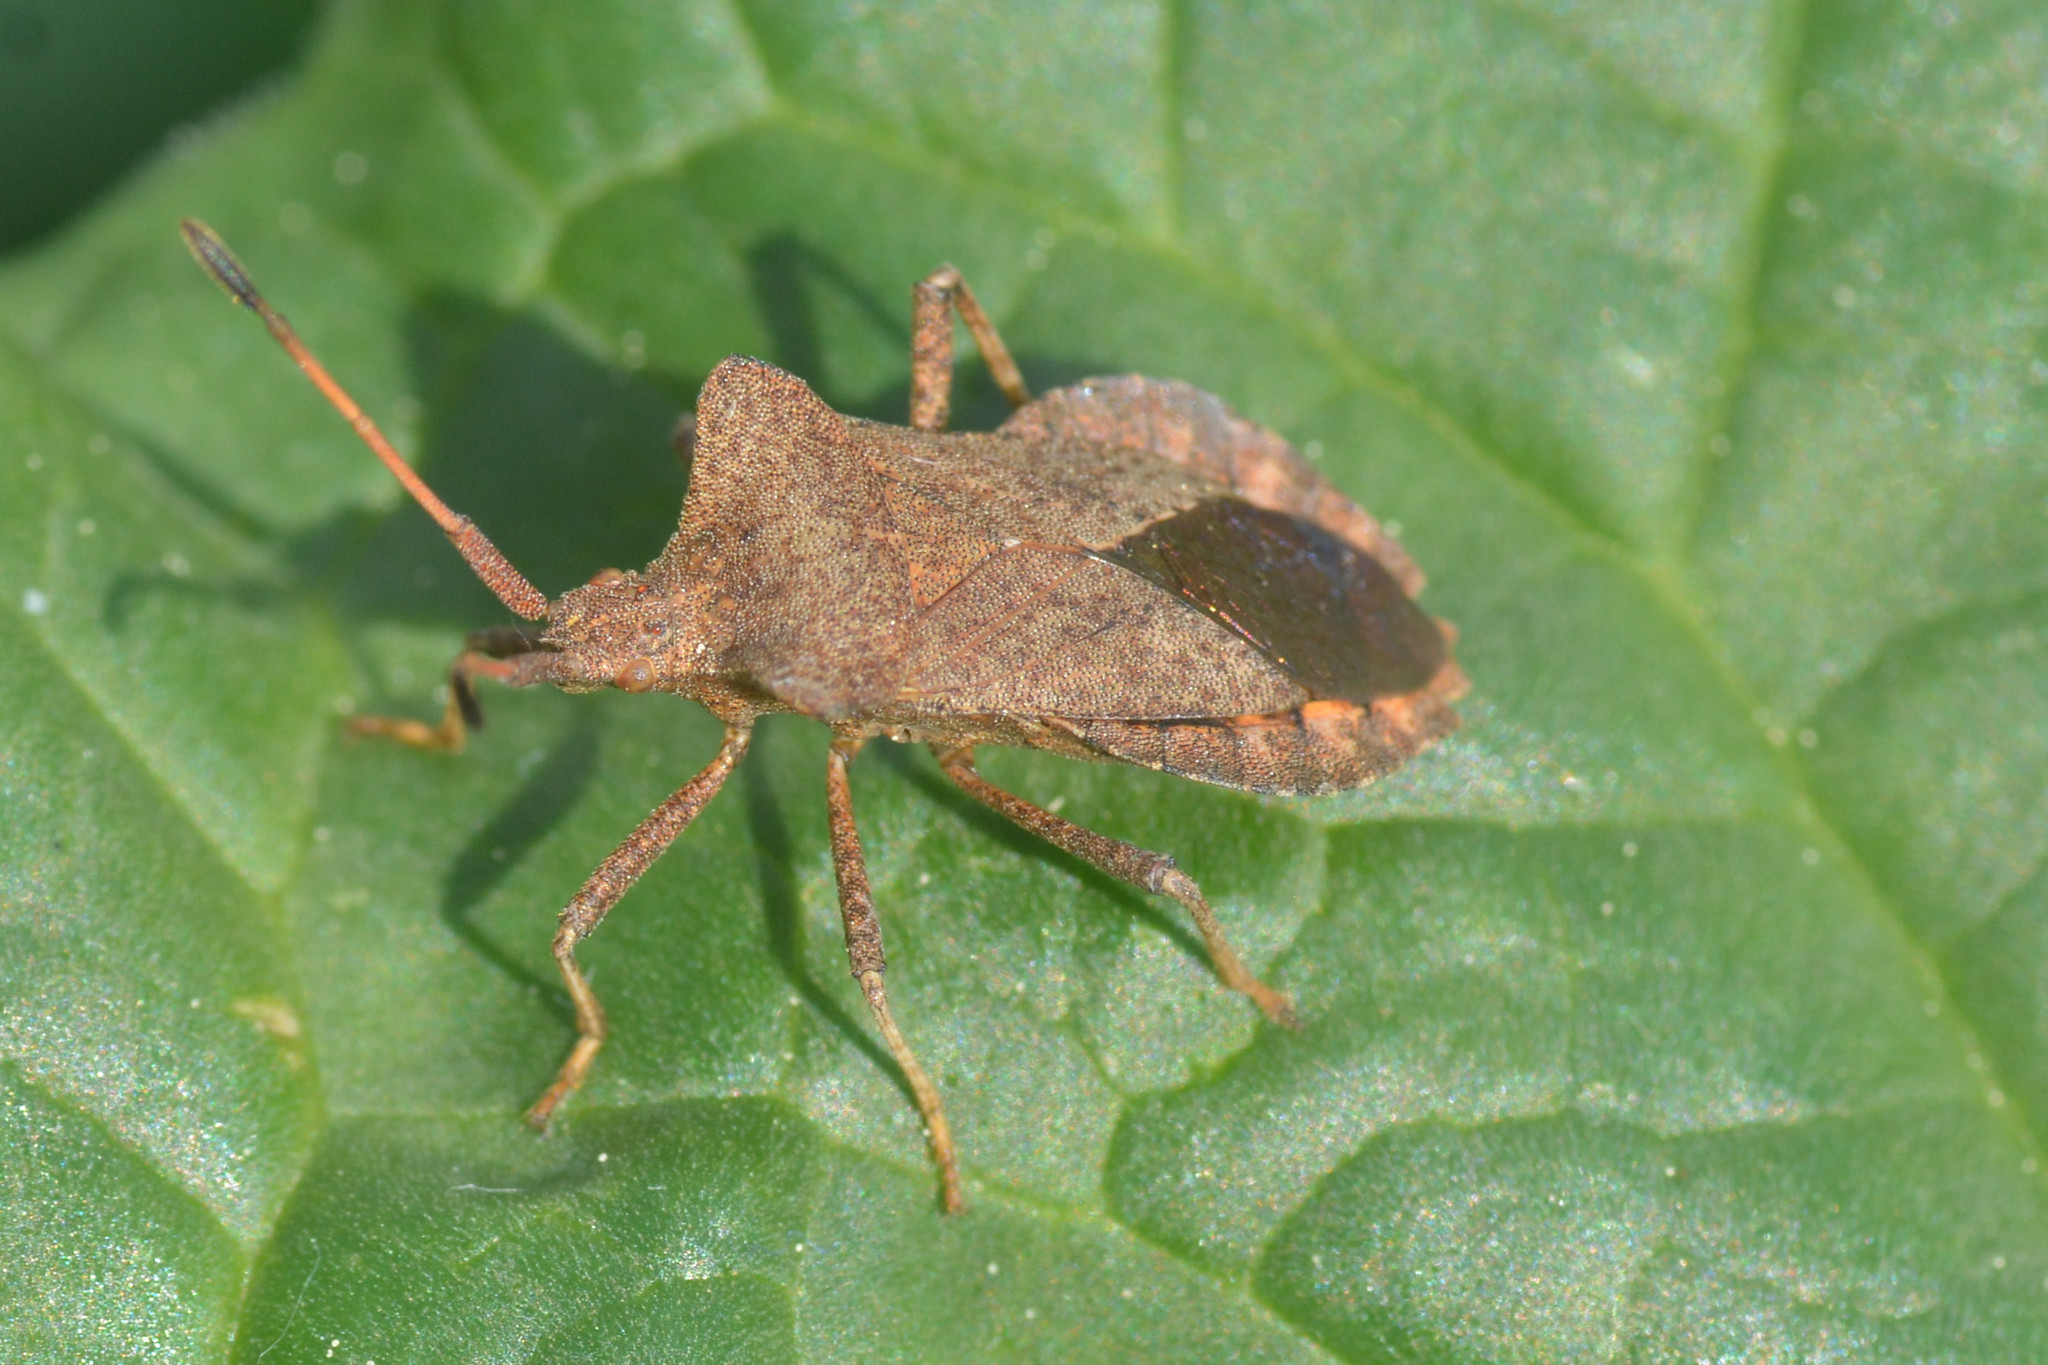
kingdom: Animalia
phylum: Arthropoda
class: Insecta
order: Hemiptera
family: Coreidae
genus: Coreus
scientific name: Coreus marginatus
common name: Dock bug
